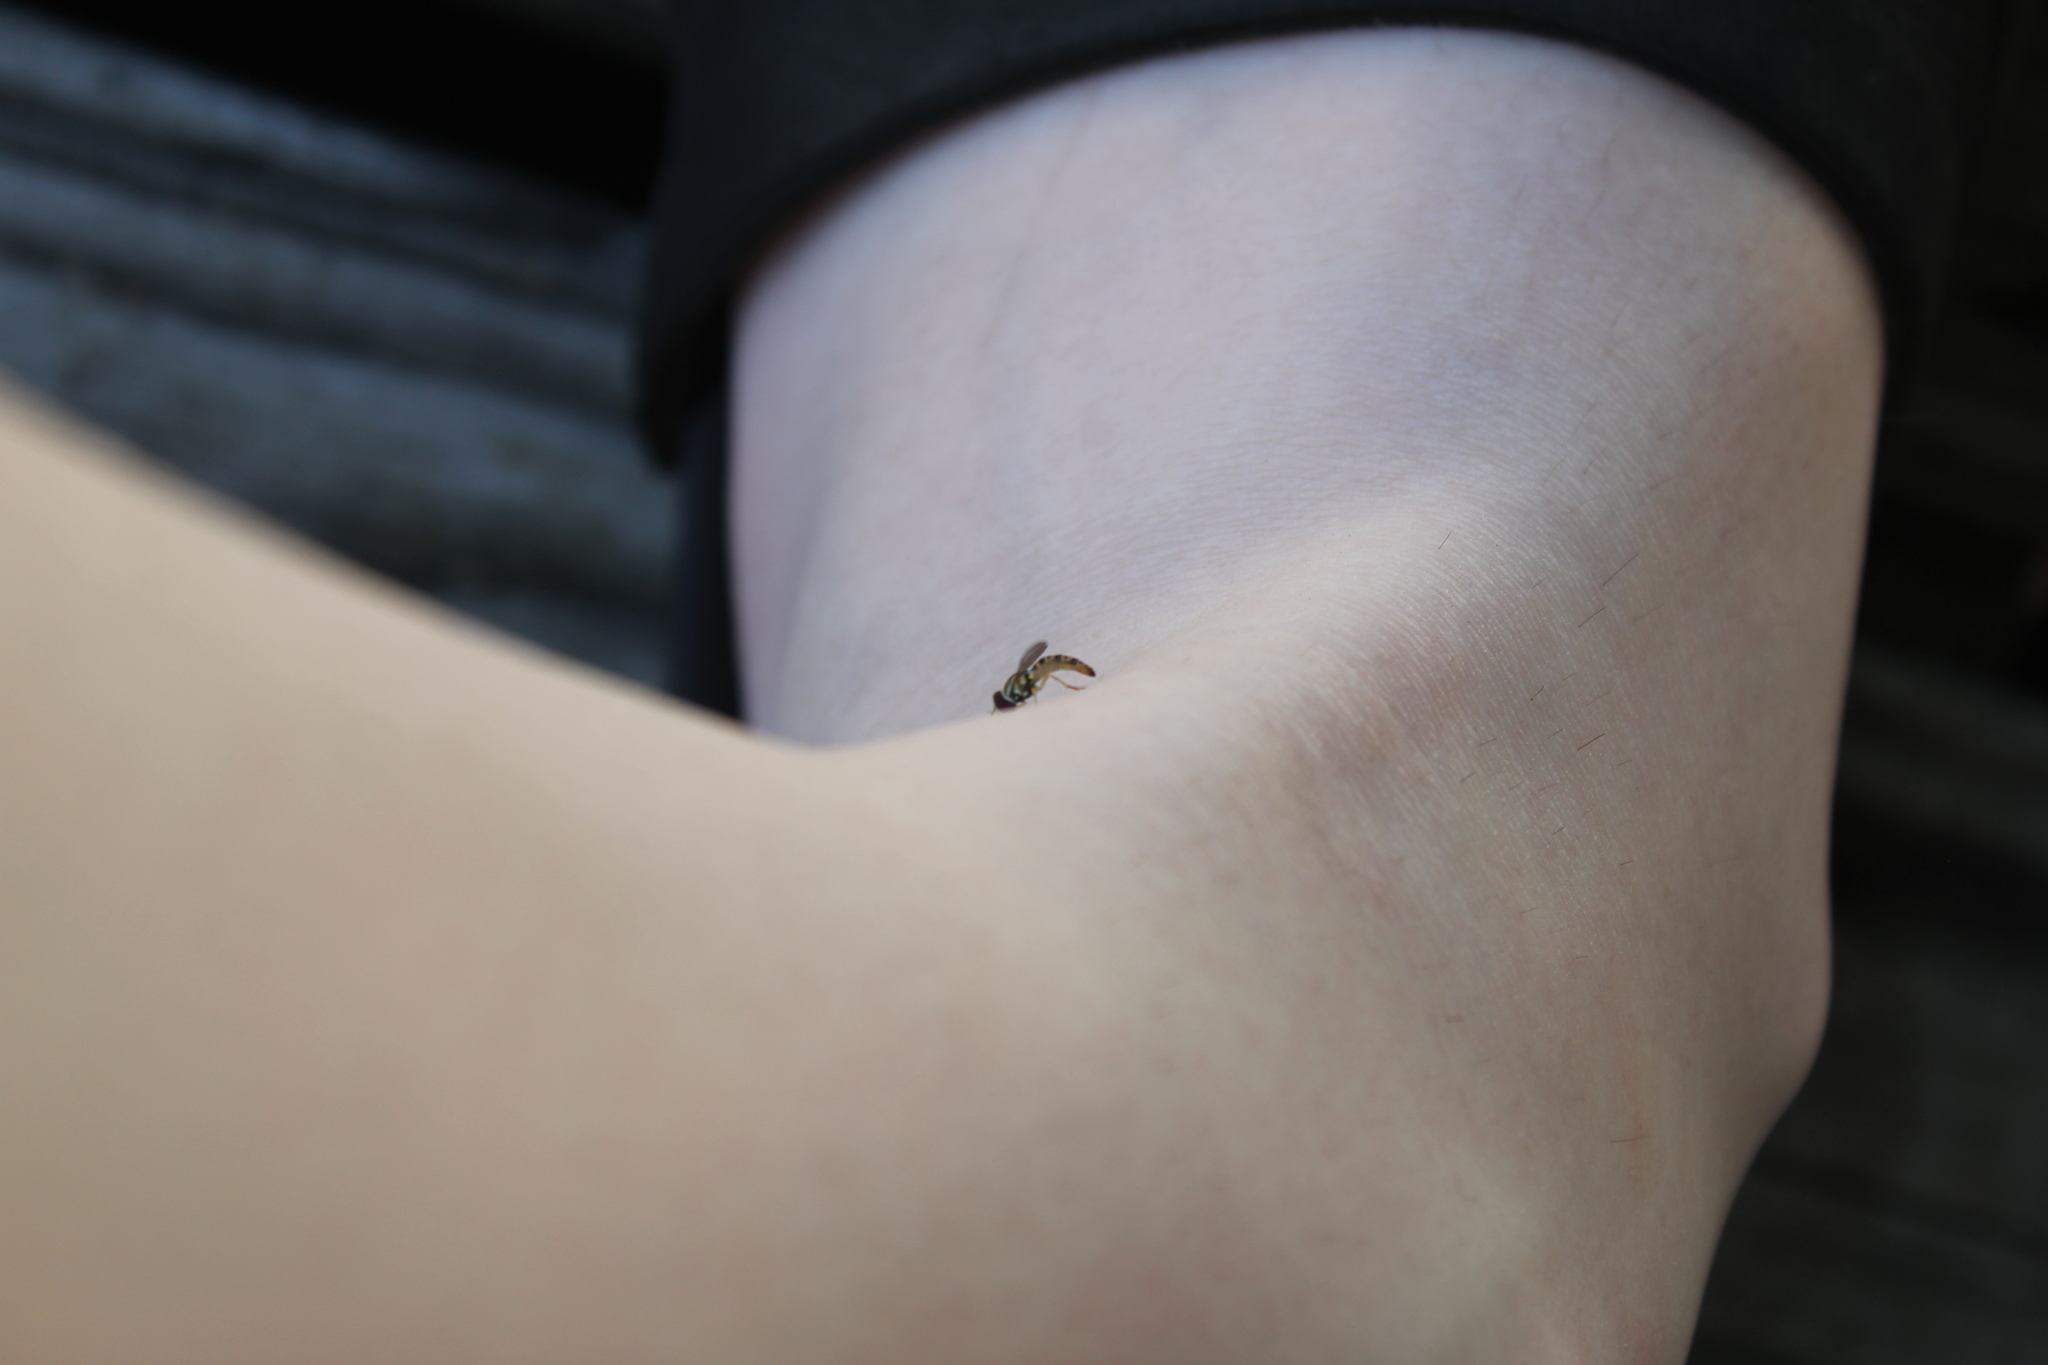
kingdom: Animalia
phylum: Arthropoda
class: Insecta
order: Diptera
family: Syrphidae
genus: Toxomerus
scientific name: Toxomerus politus
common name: Maize calligrapher
